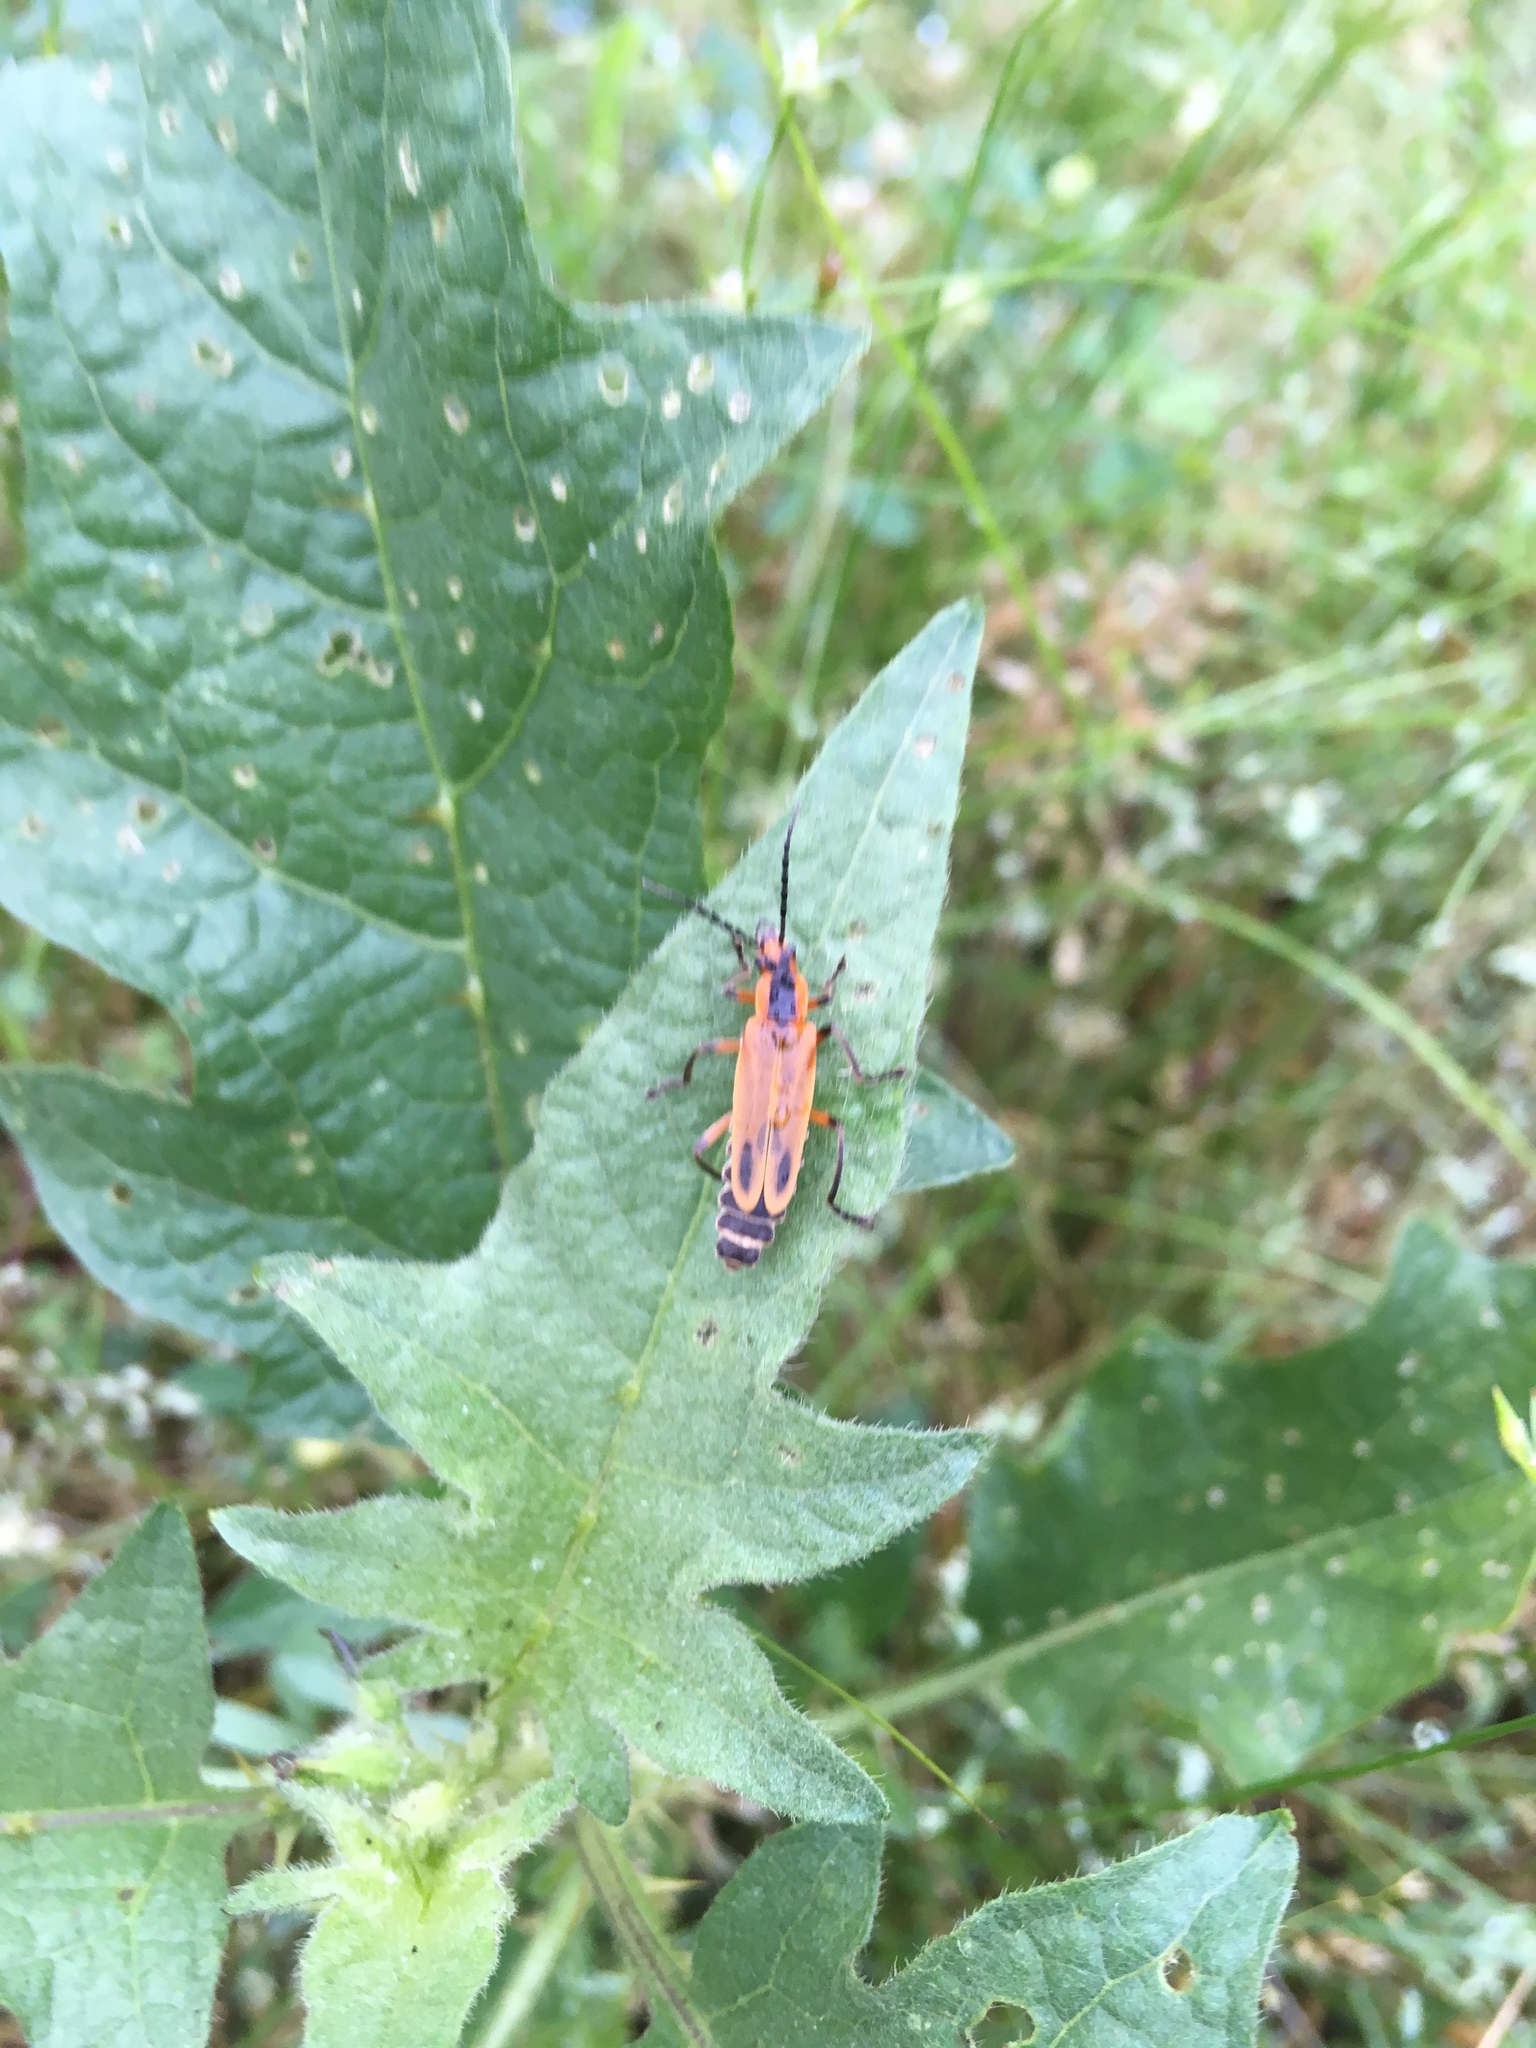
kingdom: Animalia
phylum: Arthropoda
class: Insecta
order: Coleoptera
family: Cantharidae
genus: Chauliognathus
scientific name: Chauliognathus marginatus
